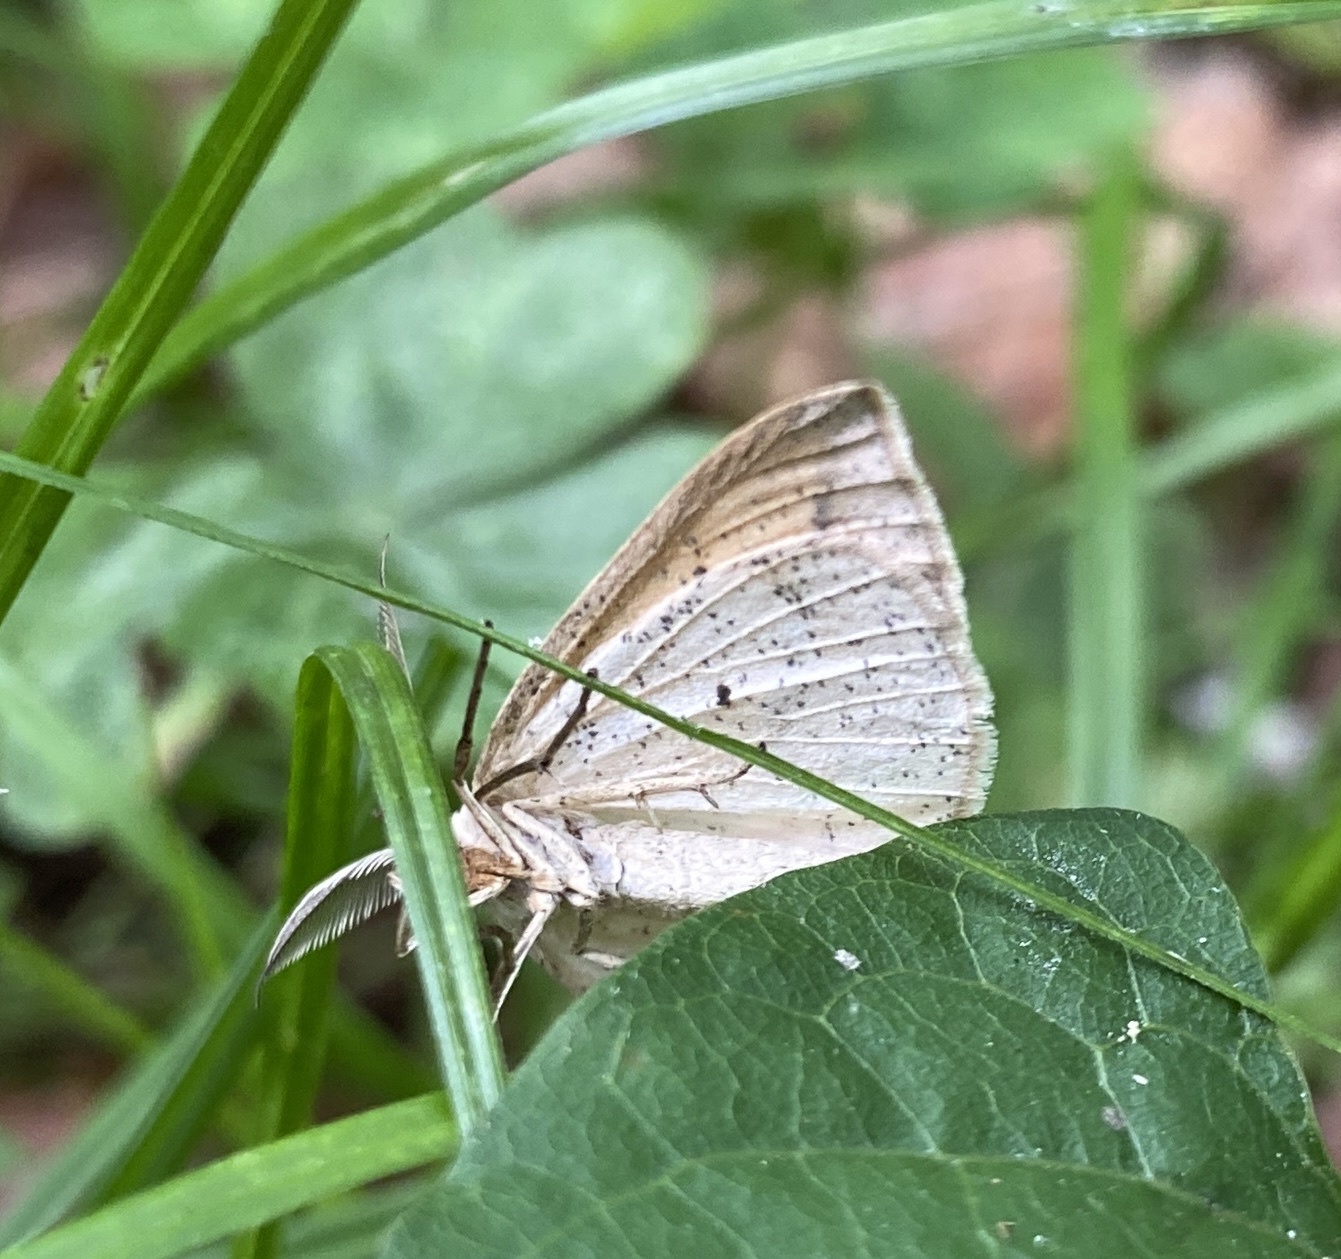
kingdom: Animalia
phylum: Arthropoda
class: Insecta
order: Lepidoptera
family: Geometridae
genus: Lychnosea
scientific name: Lychnosea intermicata
